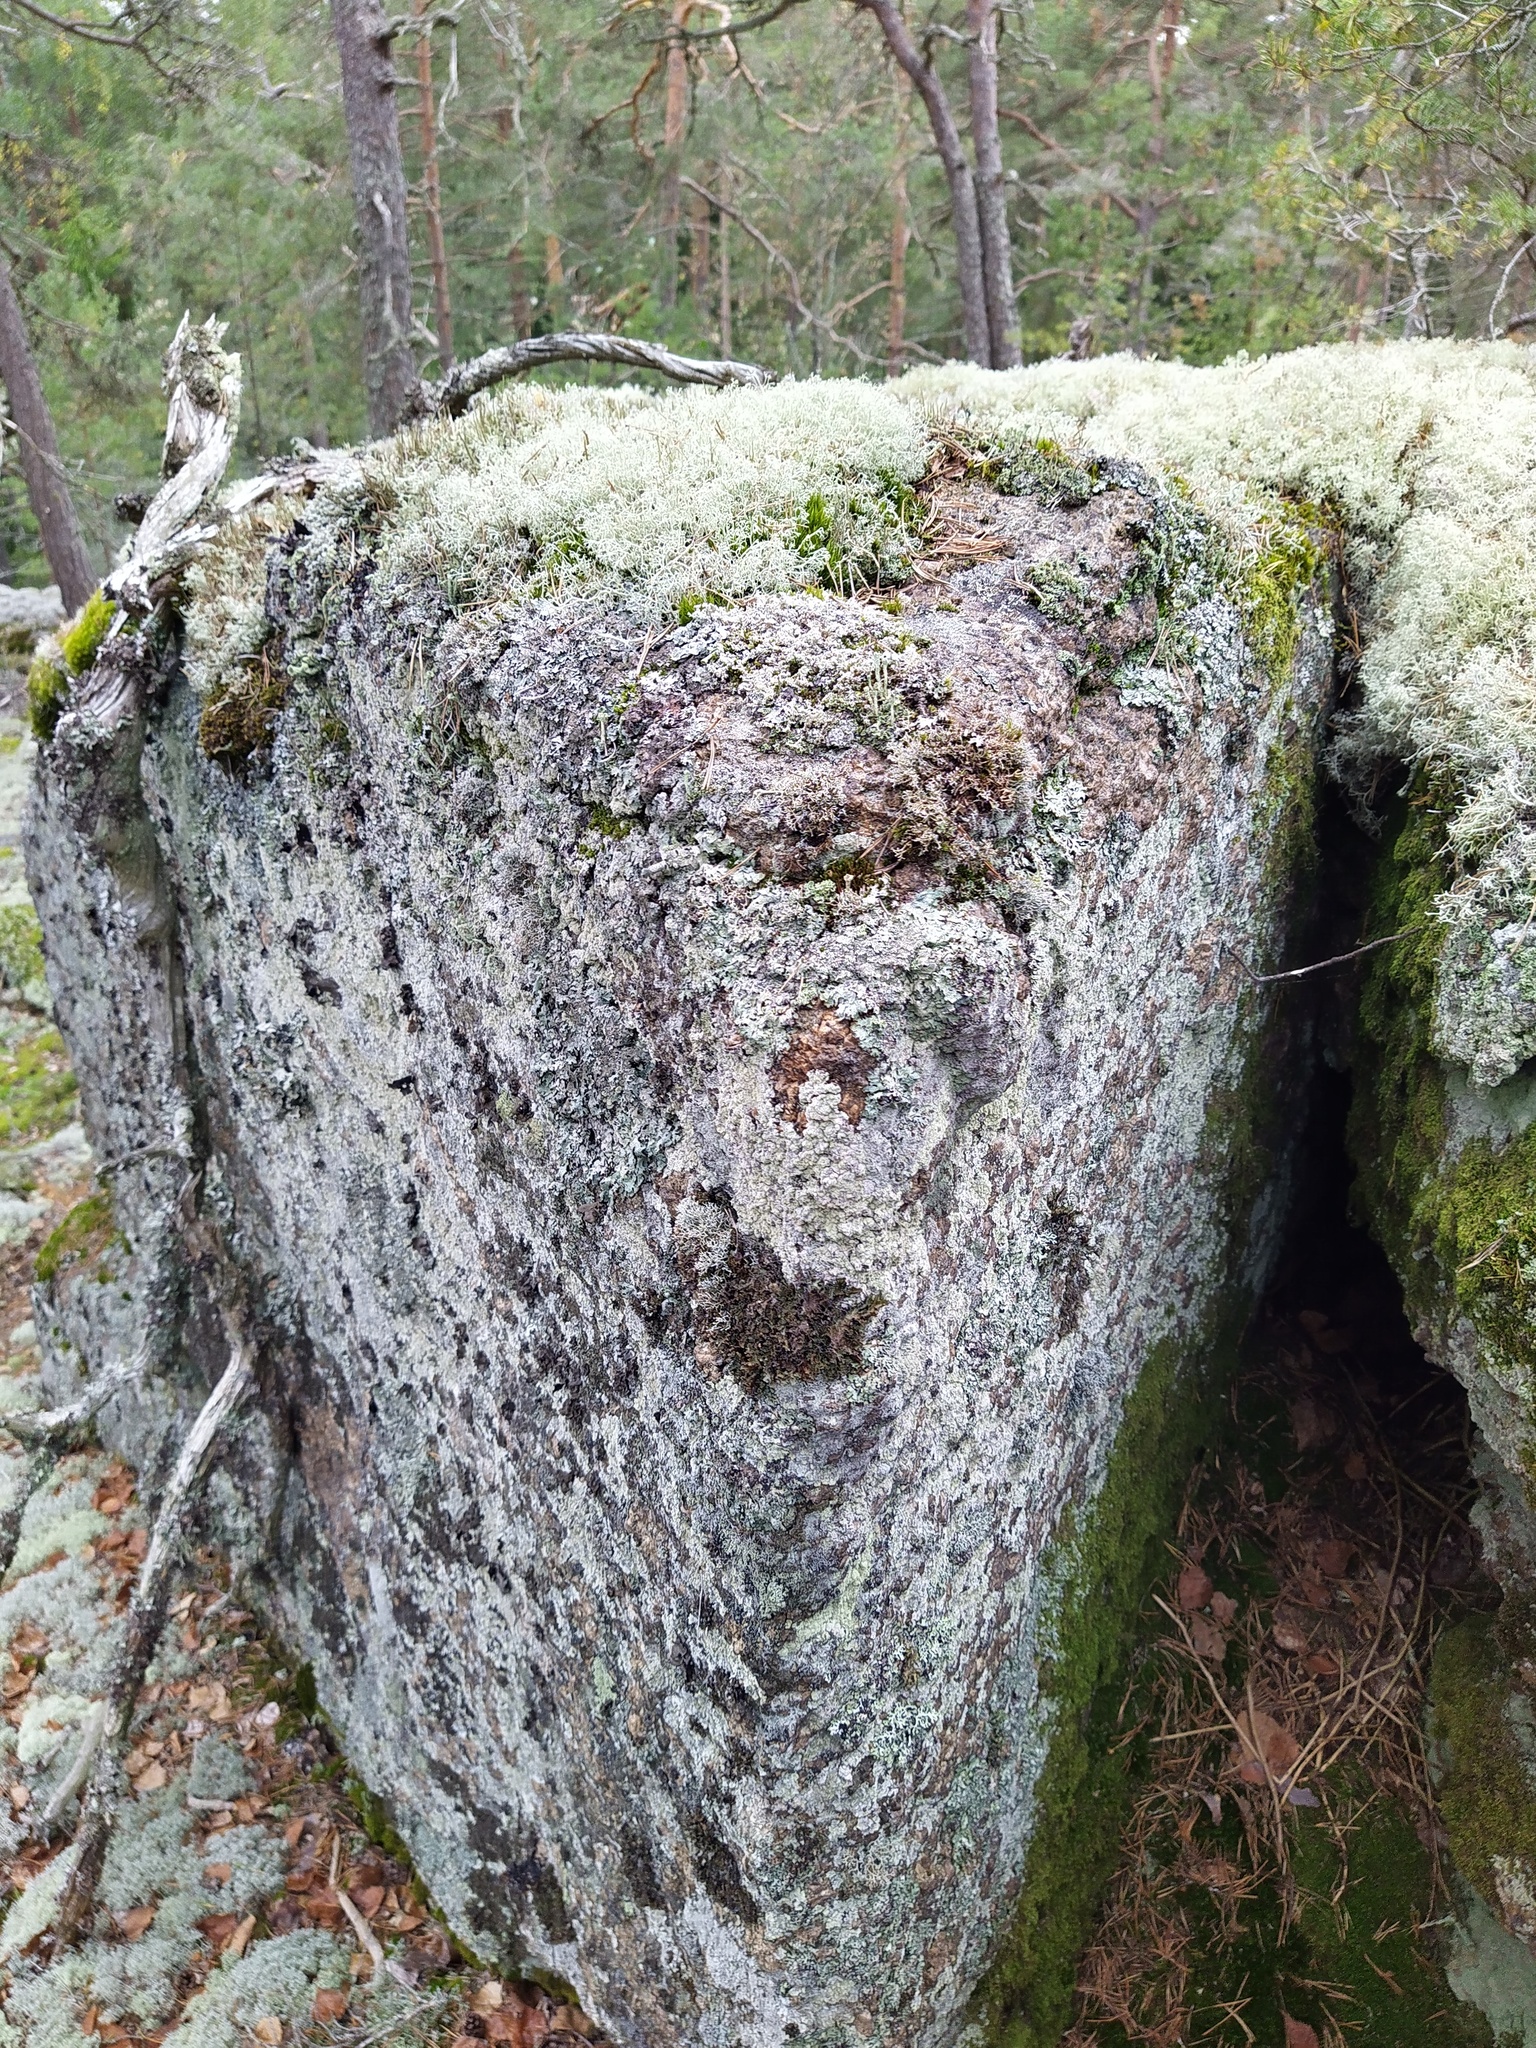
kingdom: Fungi
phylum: Ascomycota
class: Lecanoromycetes
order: Lecanorales
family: Sphaerophoraceae
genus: Sphaerophorus
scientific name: Sphaerophorus fragilis
